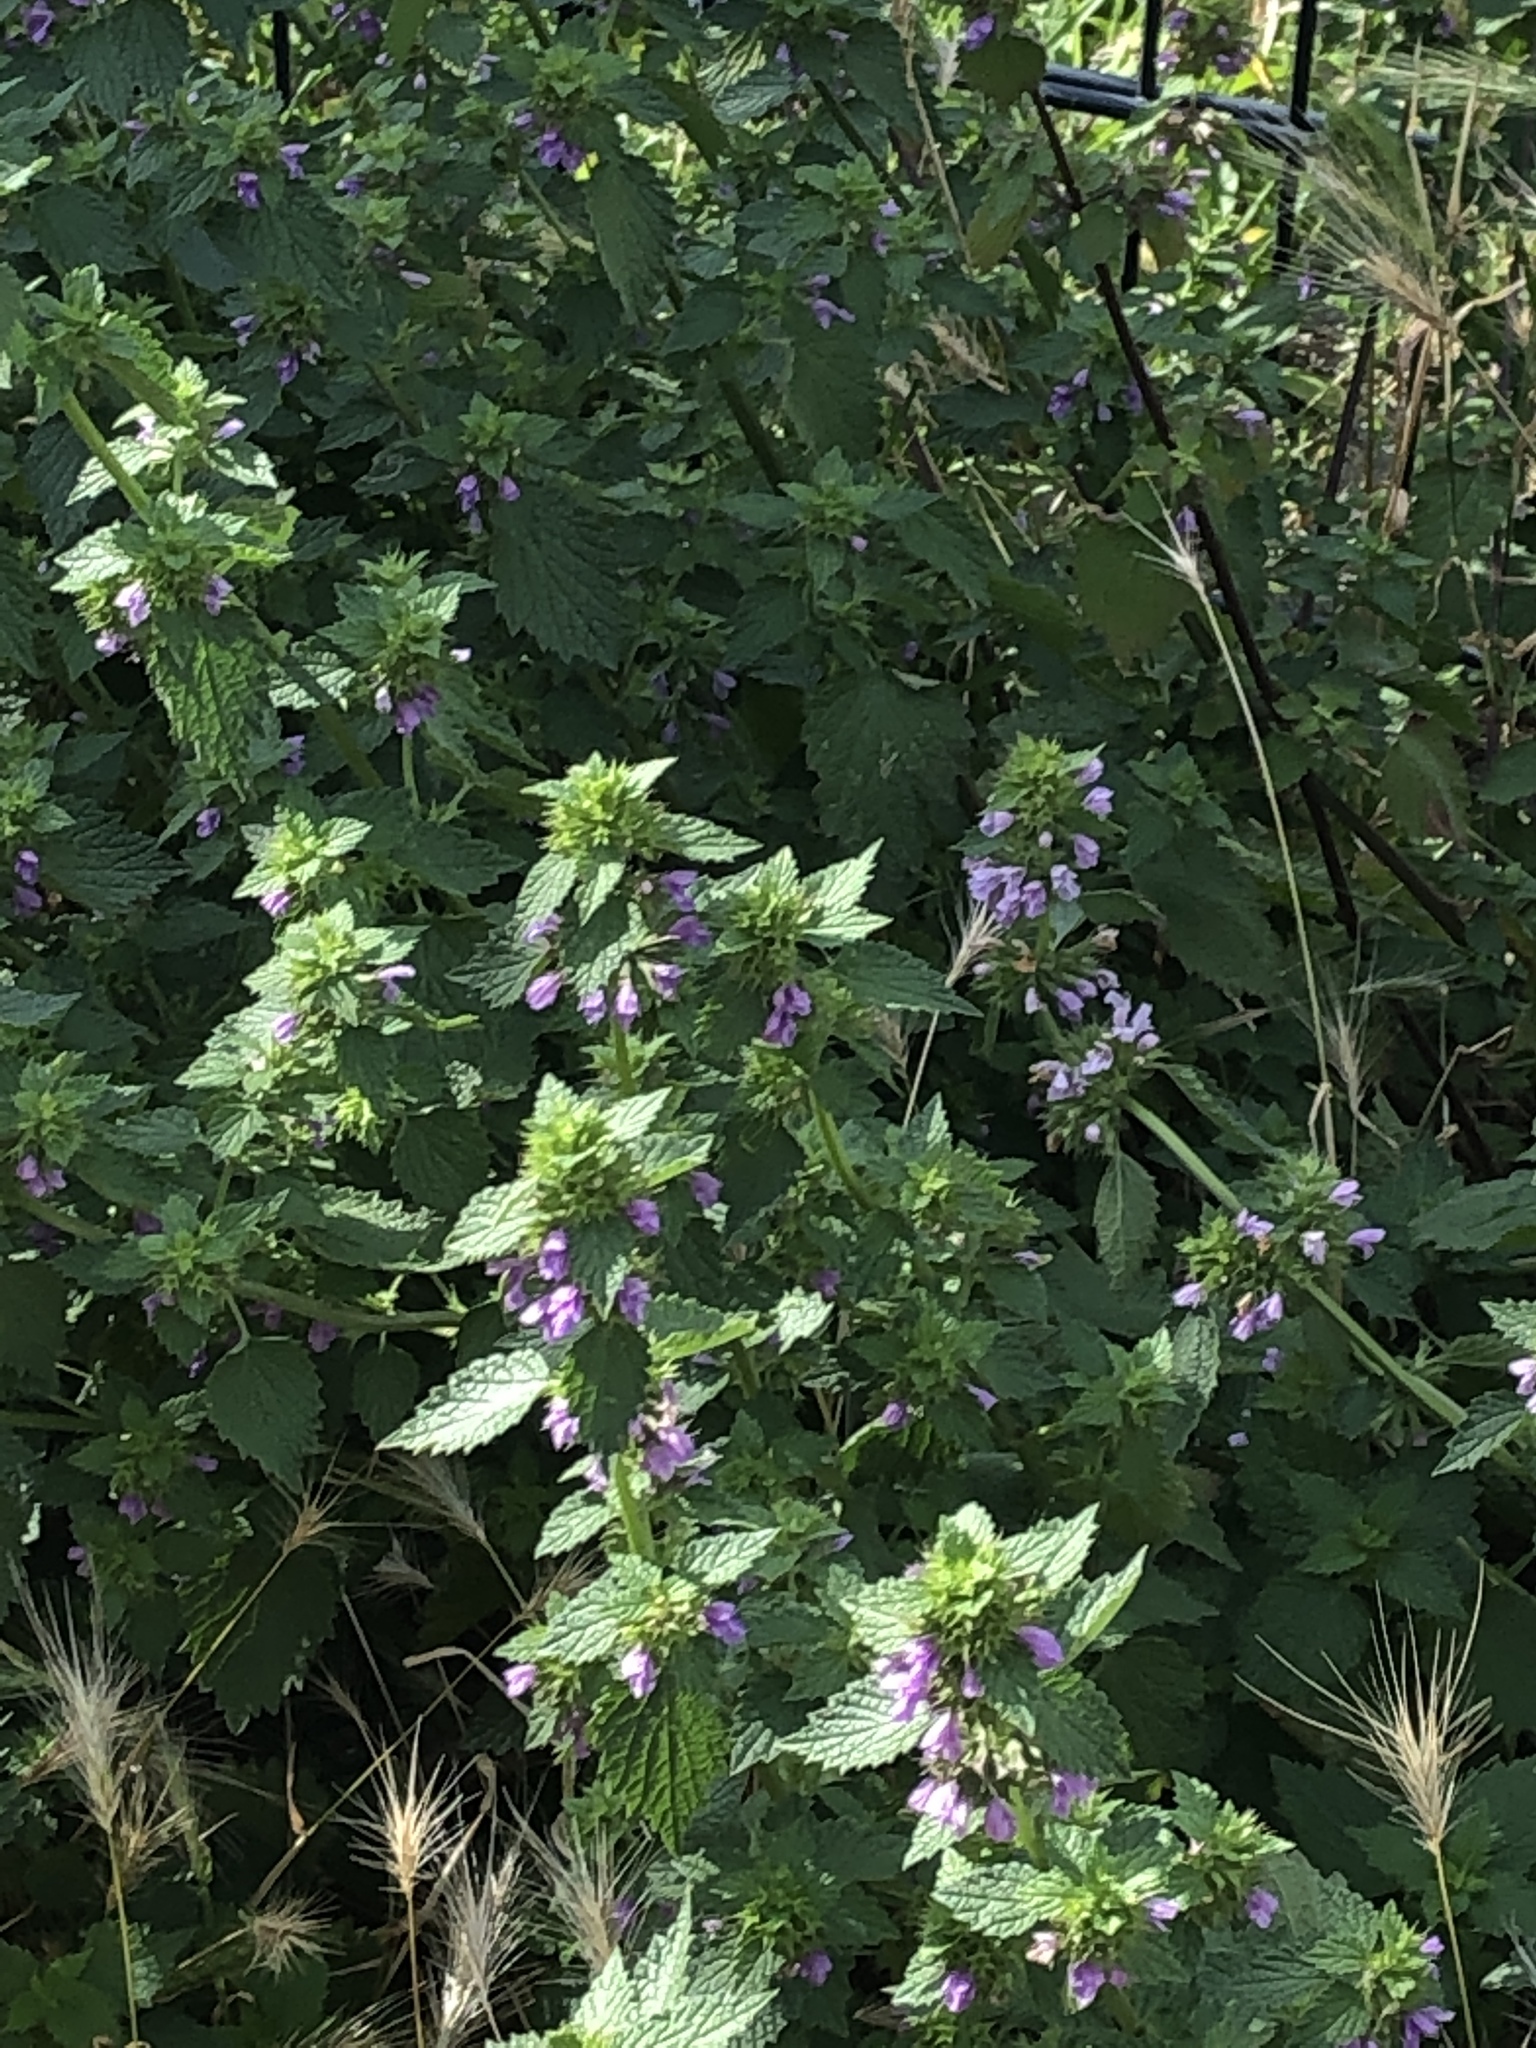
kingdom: Plantae
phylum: Tracheophyta
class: Magnoliopsida
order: Lamiales
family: Lamiaceae
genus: Ballota
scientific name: Ballota nigra
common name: Black horehound
